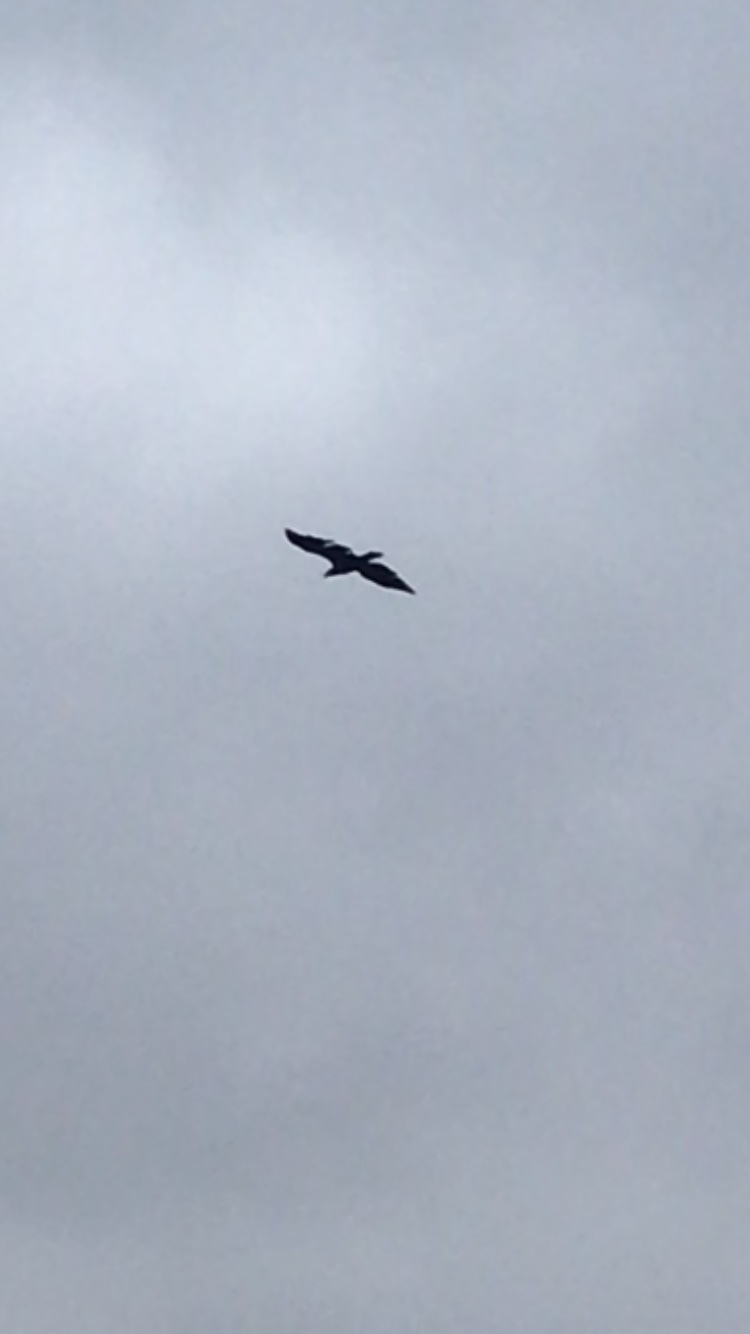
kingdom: Animalia
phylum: Chordata
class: Aves
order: Accipitriformes
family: Accipitridae
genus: Haliaeetus
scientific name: Haliaeetus leucocephalus
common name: Bald eagle
